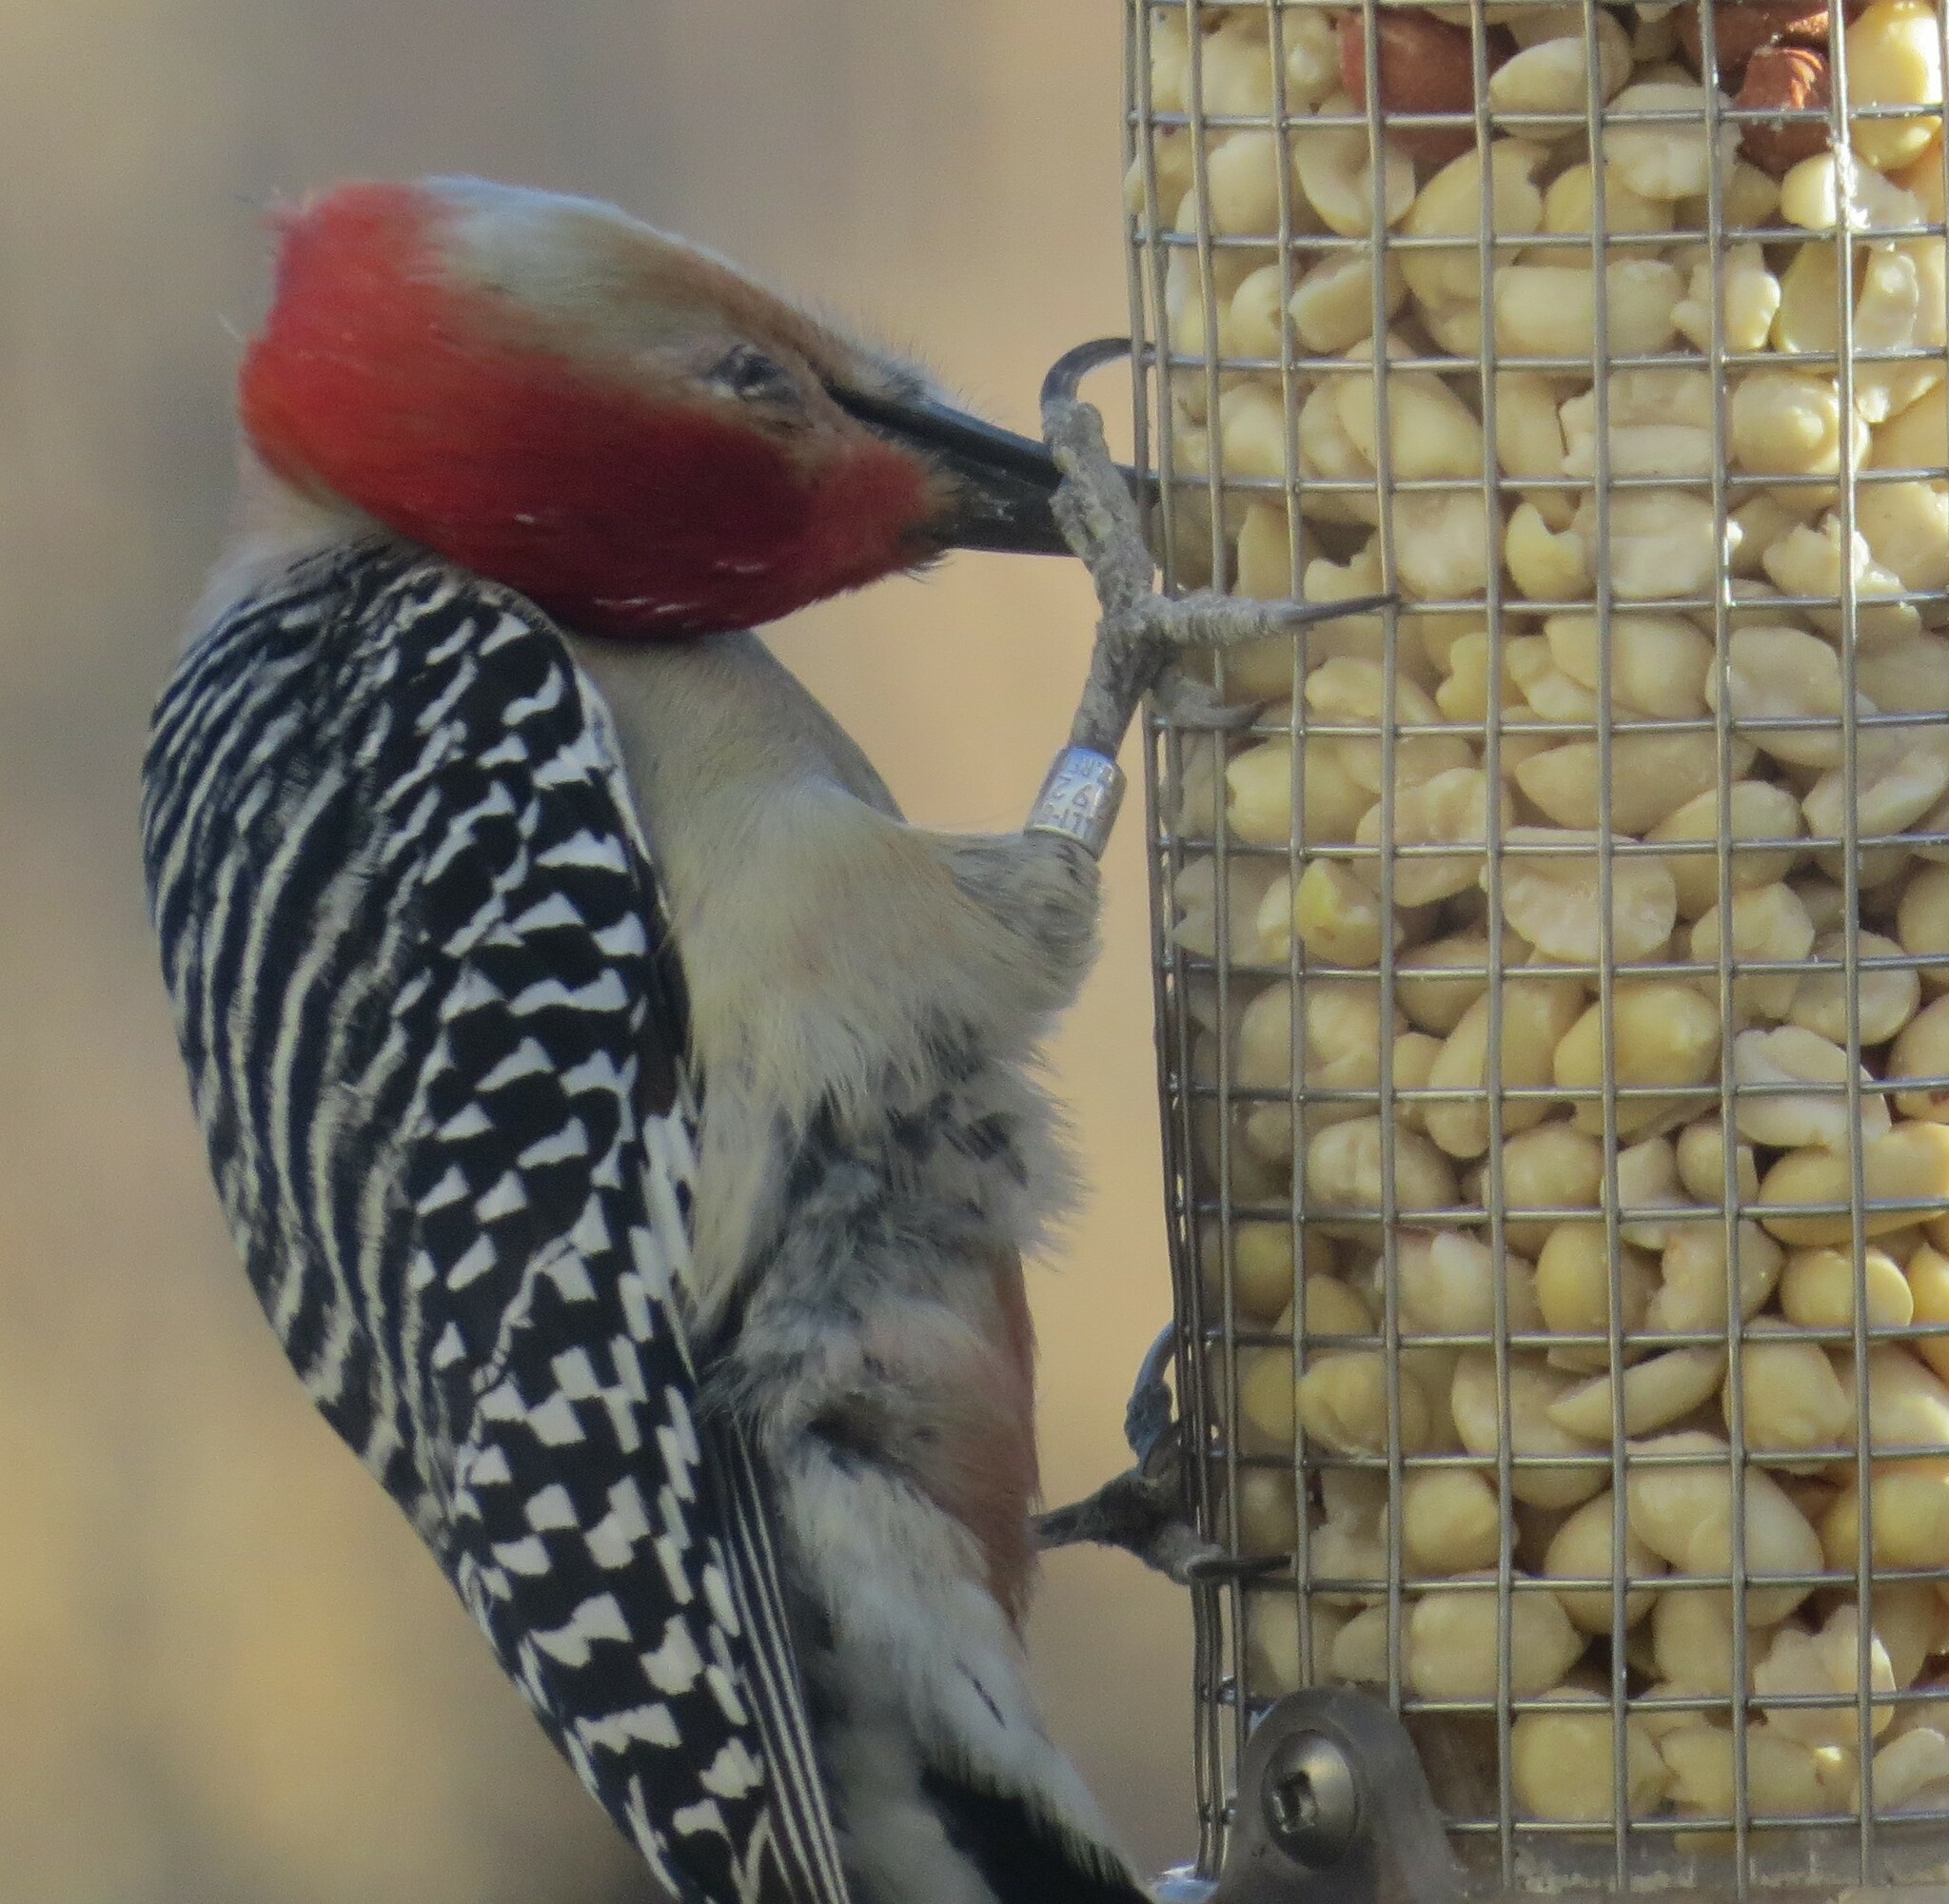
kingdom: Animalia
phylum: Chordata
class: Aves
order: Piciformes
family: Picidae
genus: Melanerpes
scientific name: Melanerpes carolinus
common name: Red-bellied woodpecker
